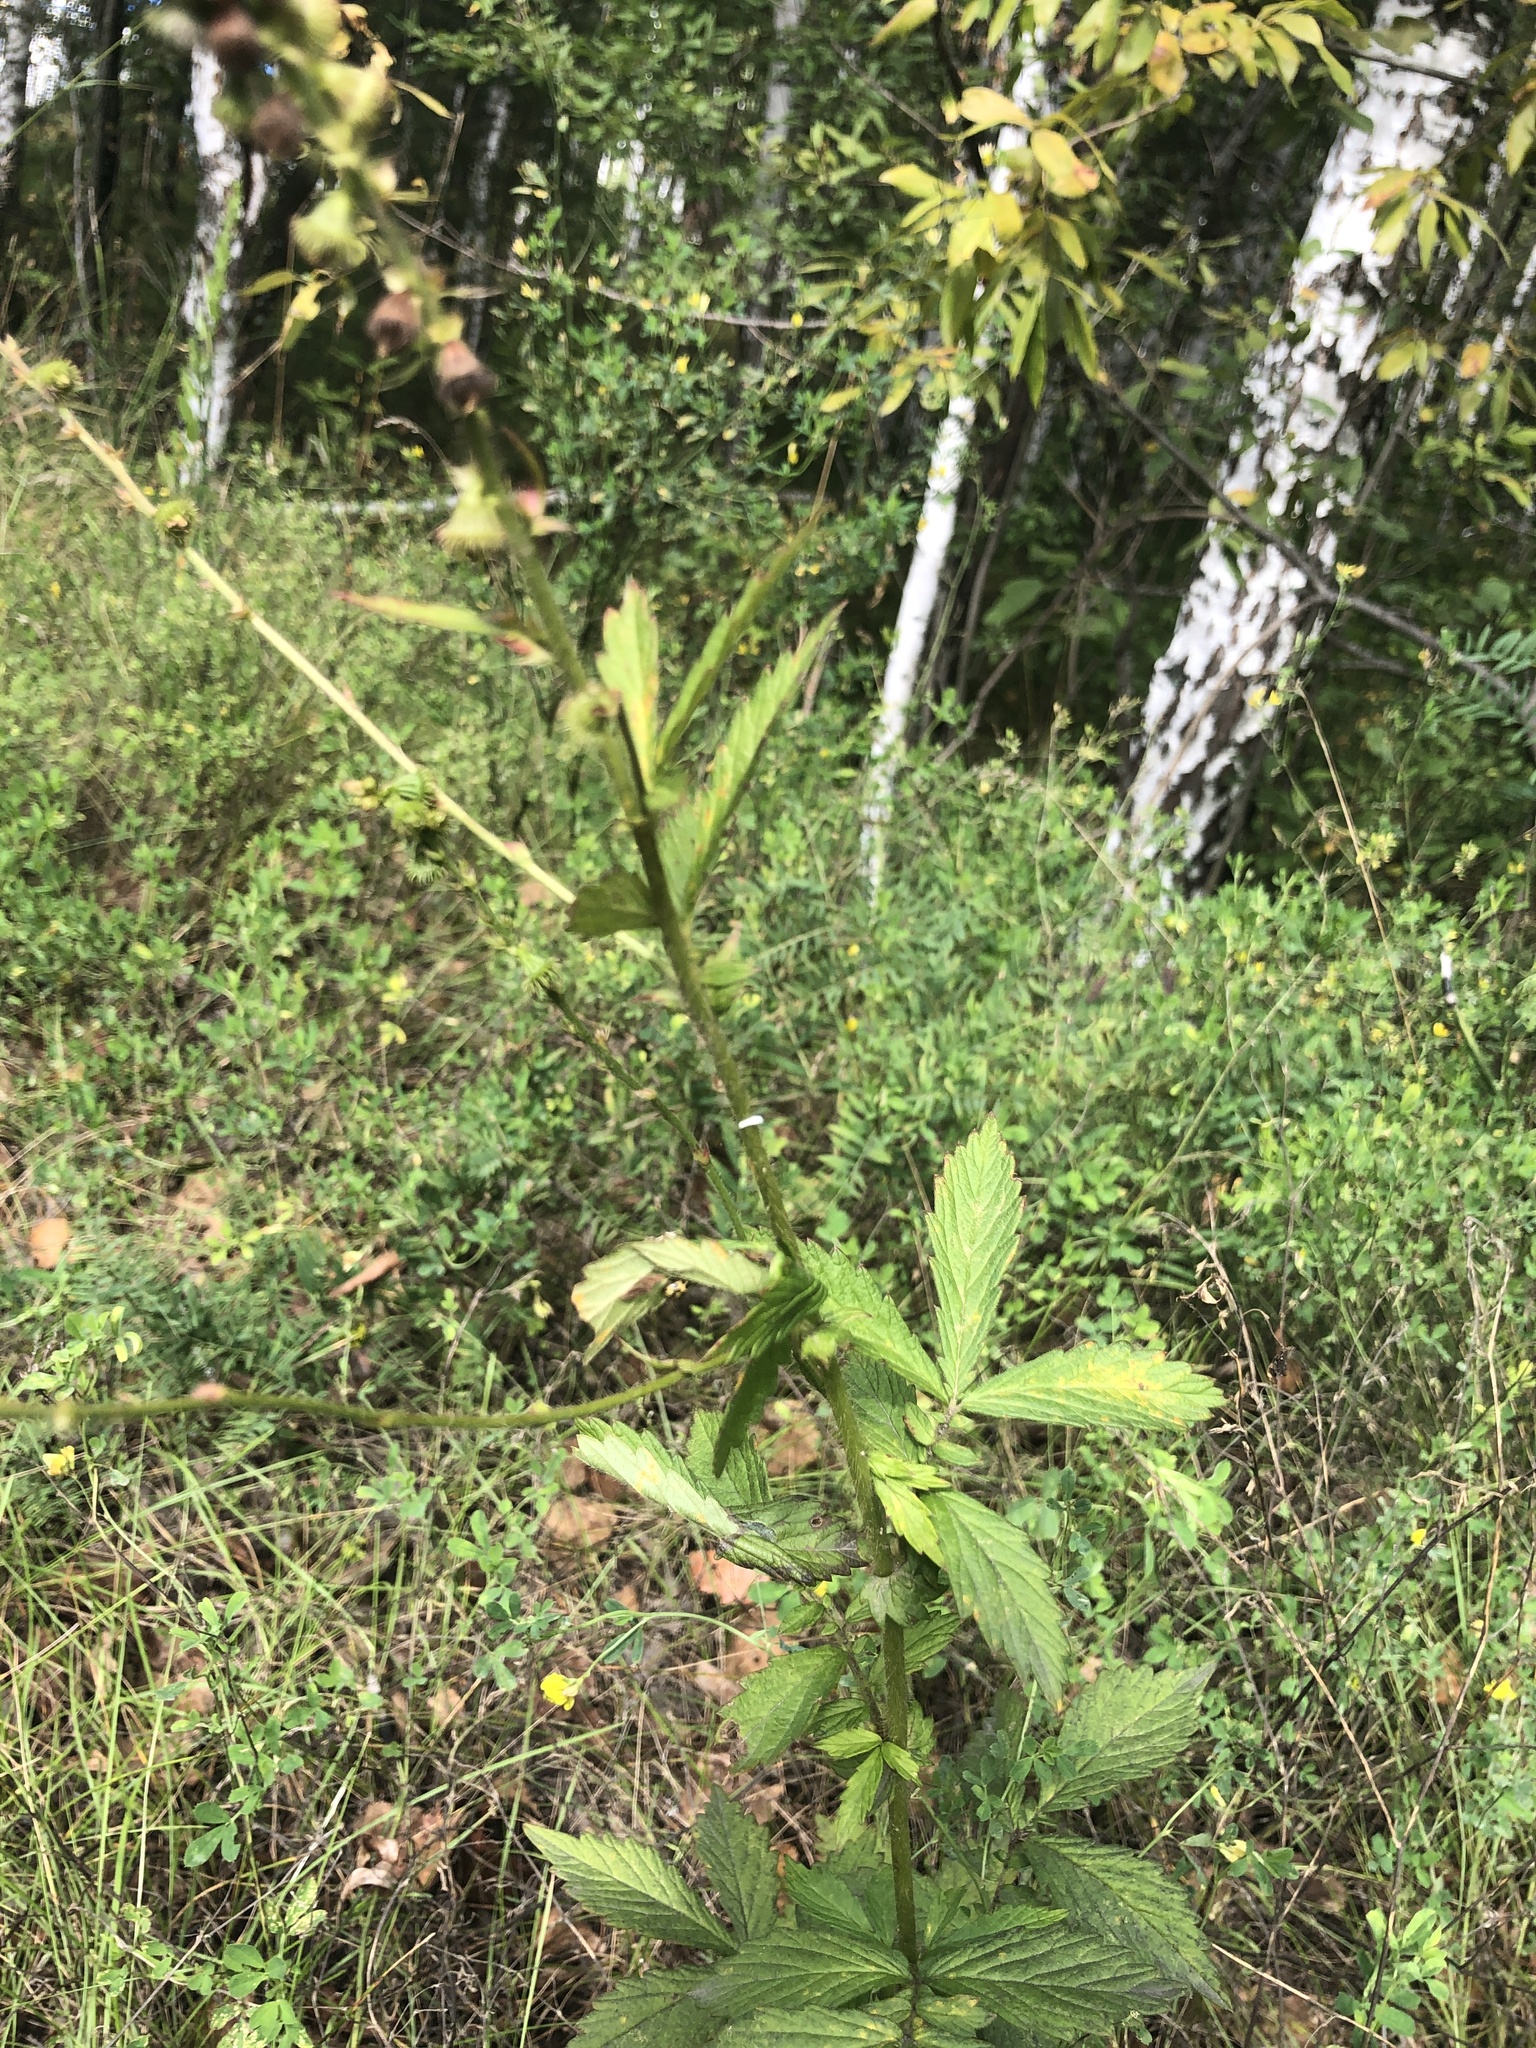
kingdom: Plantae
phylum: Tracheophyta
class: Magnoliopsida
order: Rosales
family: Rosaceae
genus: Agrimonia
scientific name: Agrimonia pilosa
